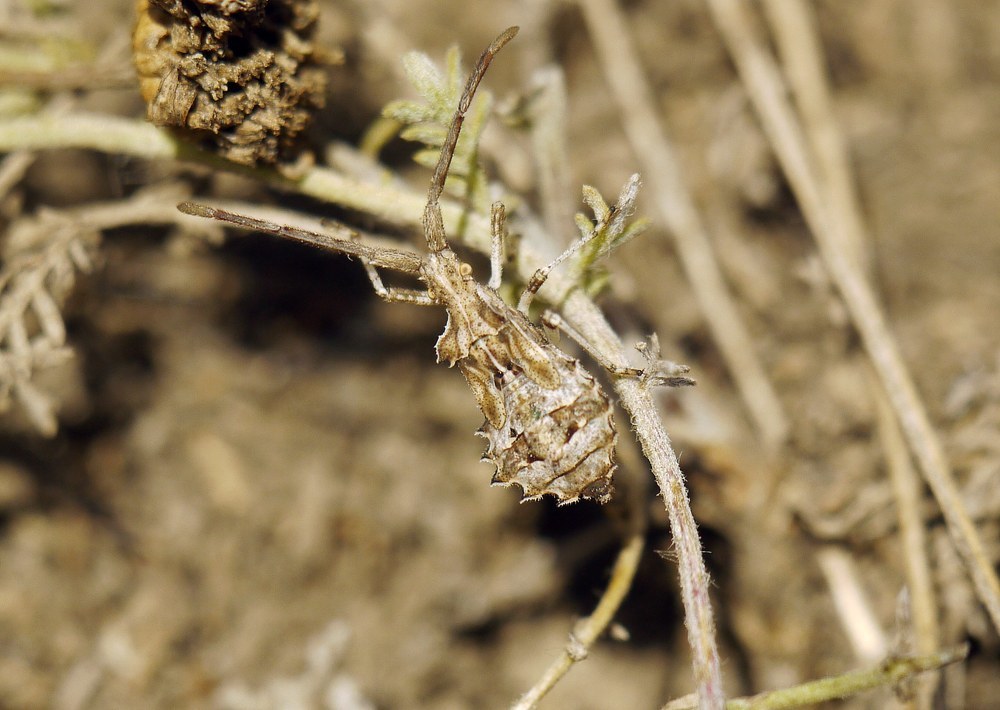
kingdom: Animalia
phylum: Arthropoda
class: Insecta
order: Hemiptera
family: Coreidae
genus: Syromastus
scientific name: Syromastus rhombeus
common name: Rhombic leatherbug
